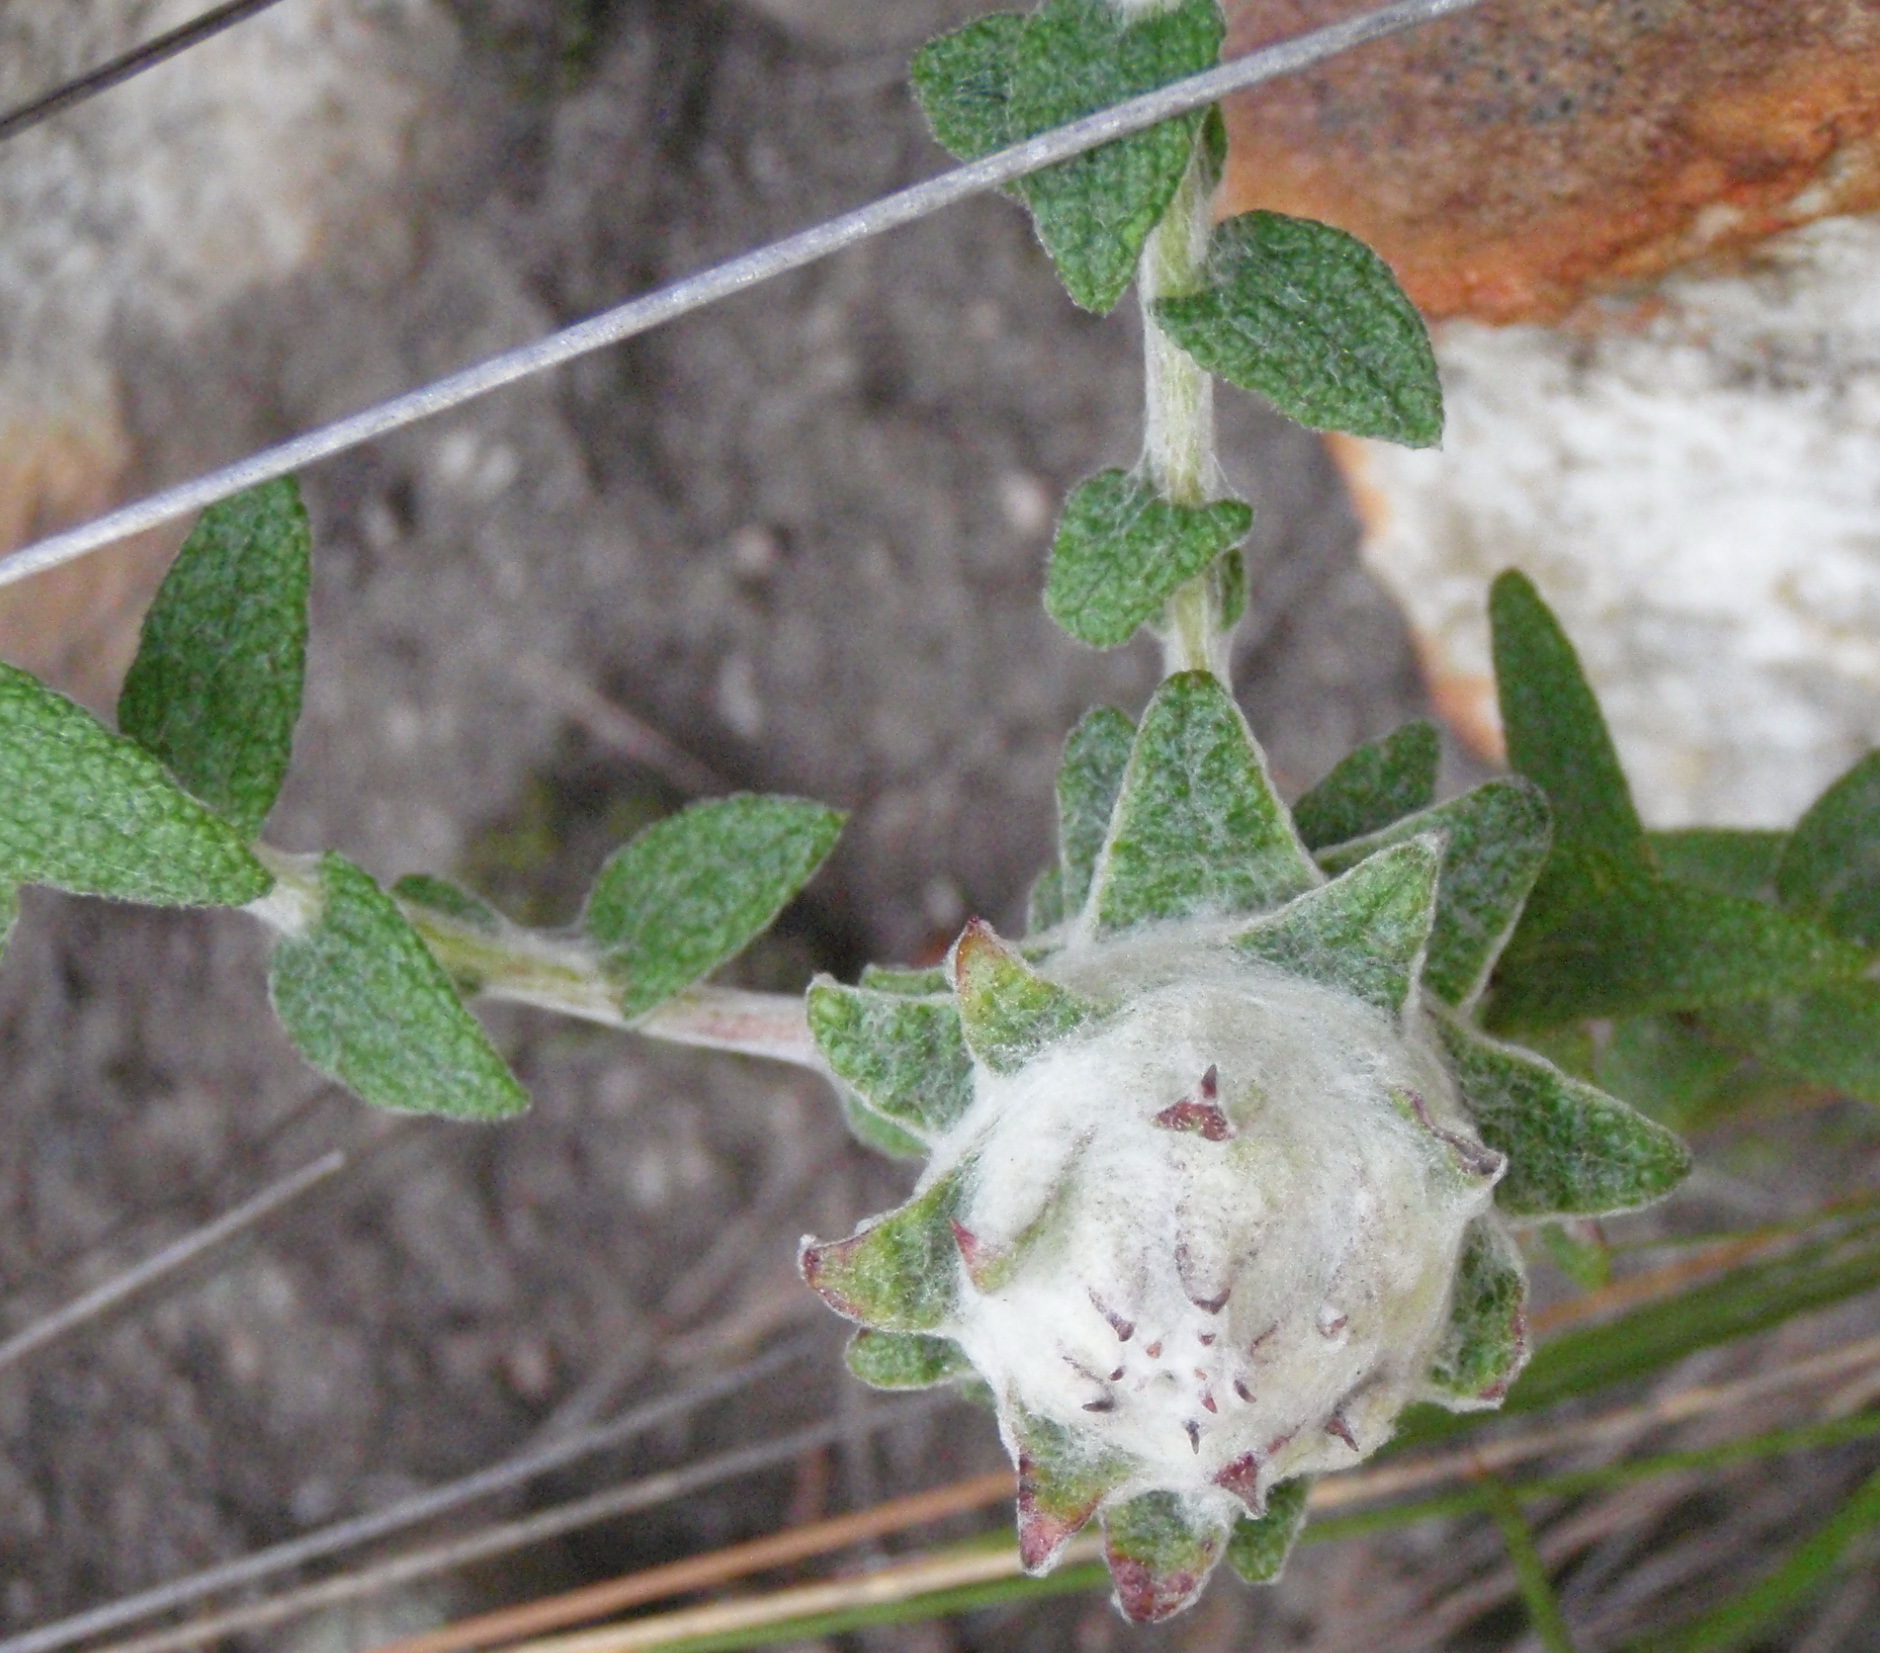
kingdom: Plantae
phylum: Tracheophyta
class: Magnoliopsida
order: Asterales
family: Asteraceae
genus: Helichrysum
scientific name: Helichrysum felinum
